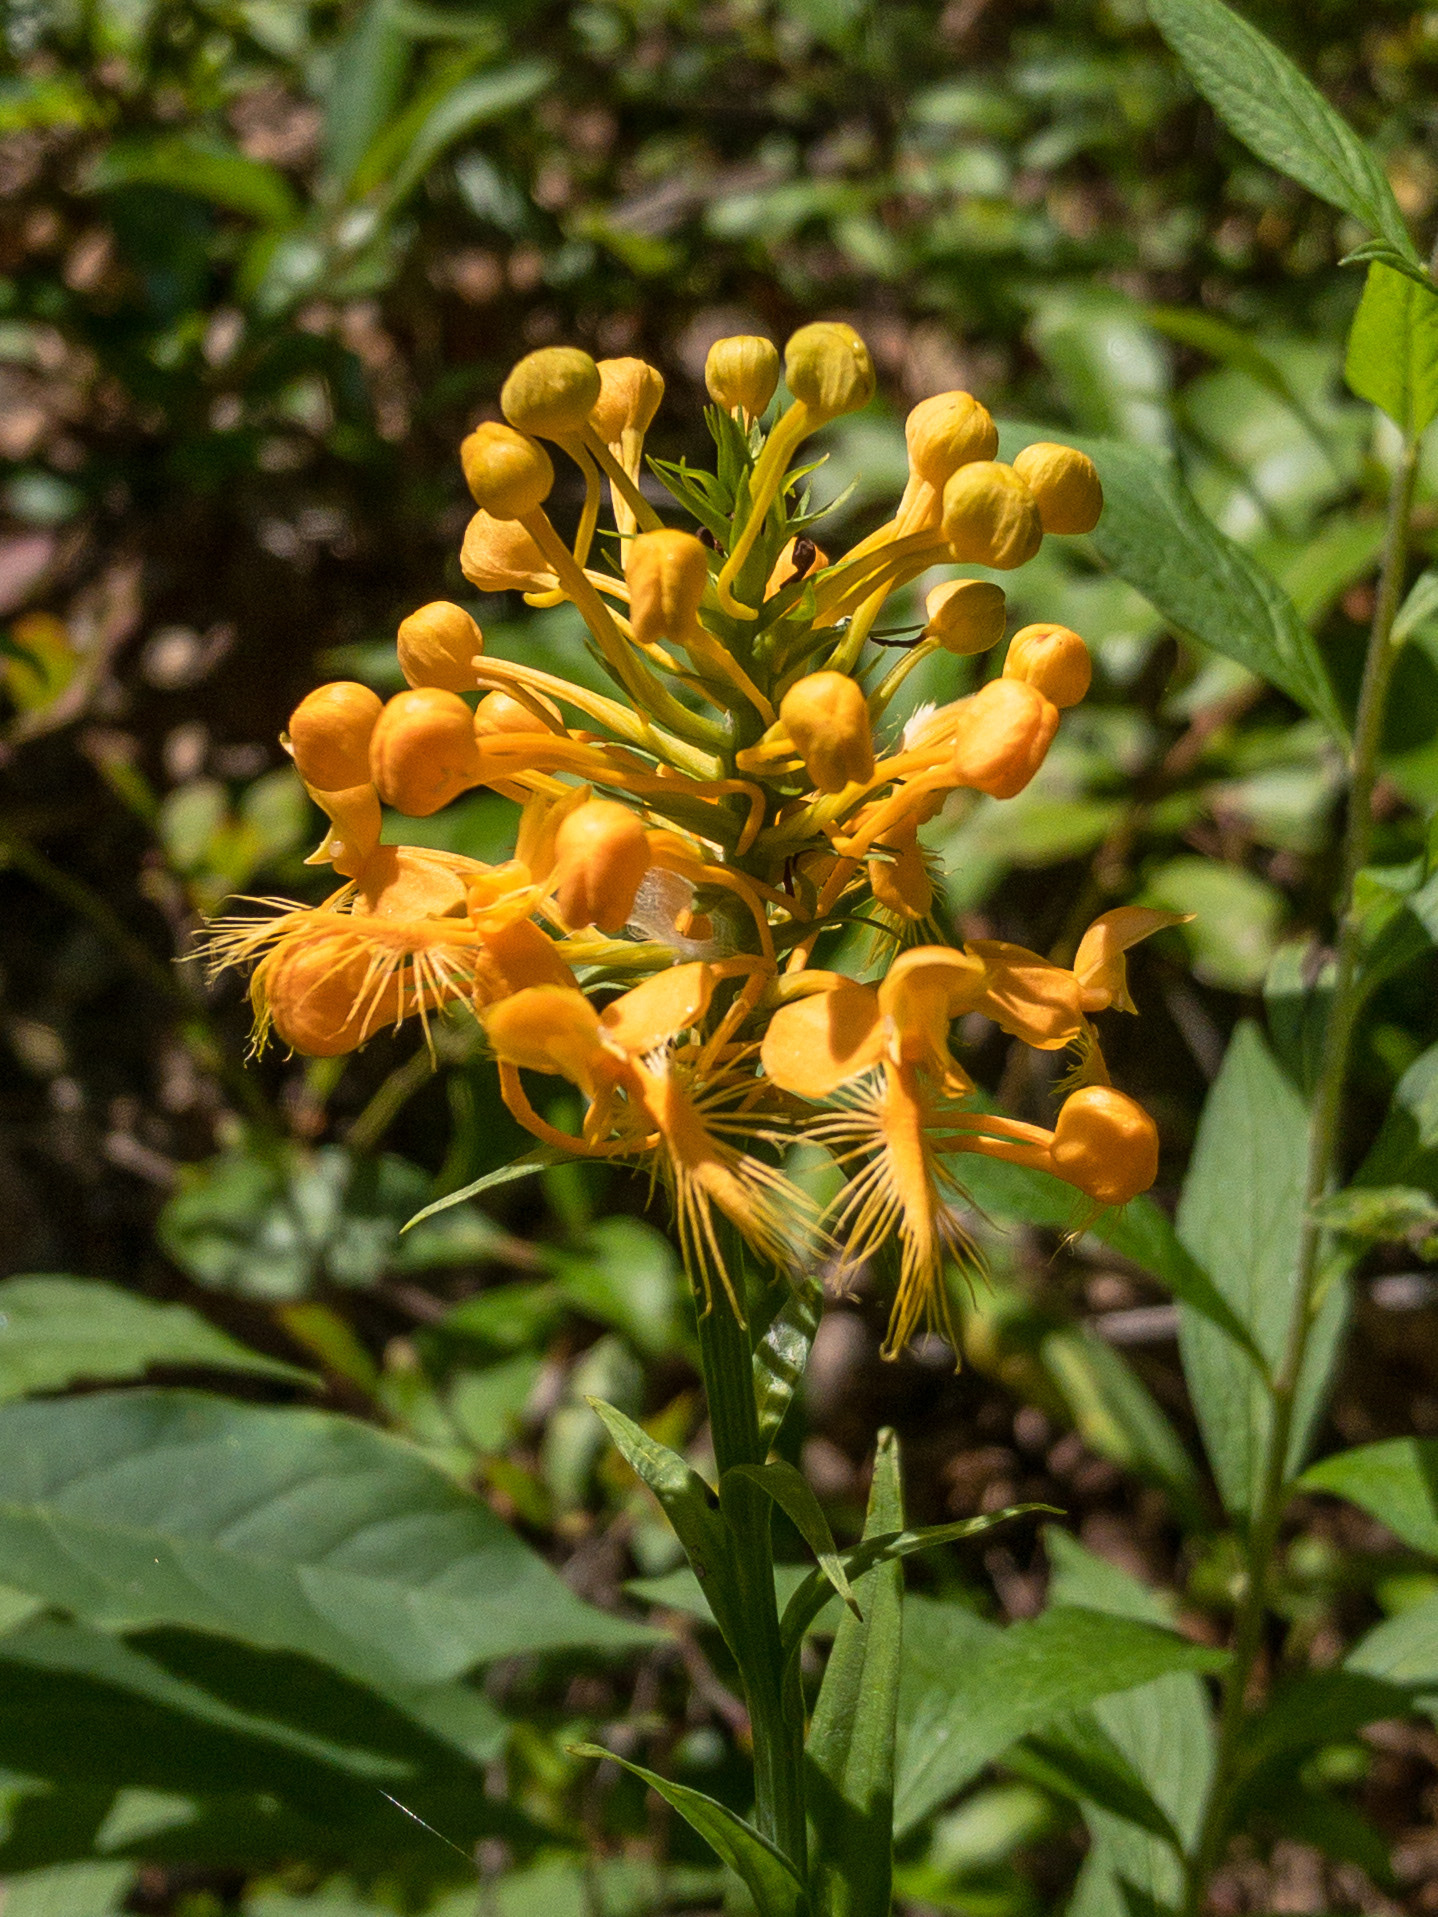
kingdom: Plantae
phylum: Tracheophyta
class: Liliopsida
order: Asparagales
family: Orchidaceae
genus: Platanthera
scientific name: Platanthera ciliaris
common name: Yellow fringed orchid
